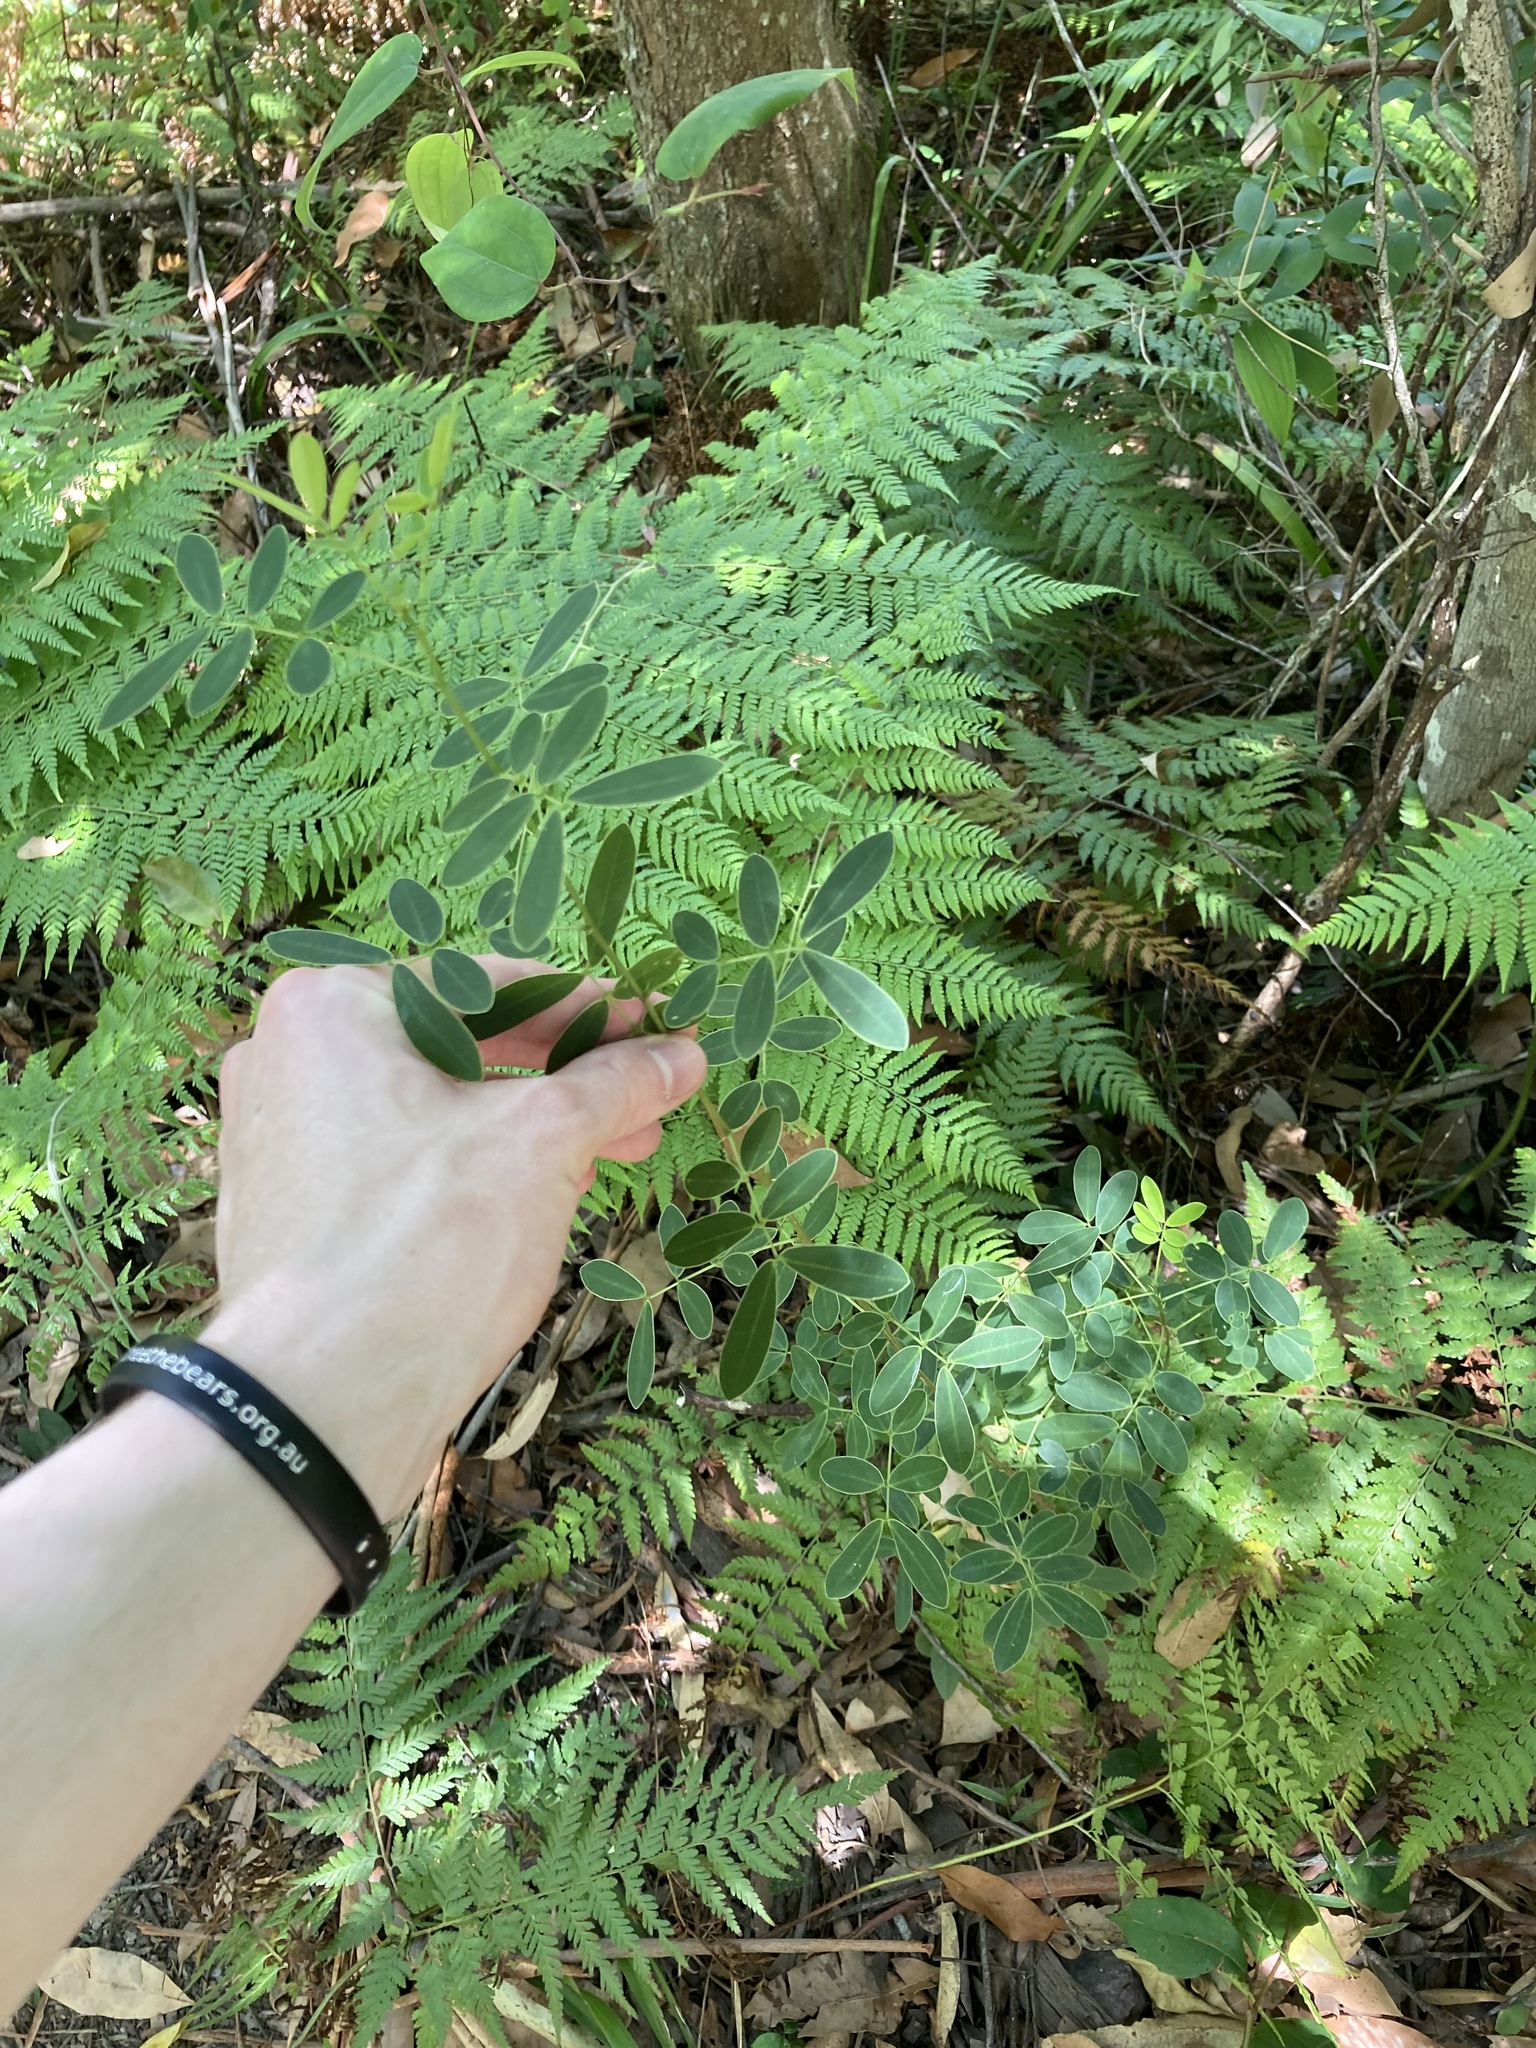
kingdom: Plantae
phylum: Tracheophyta
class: Magnoliopsida
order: Fabales
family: Fabaceae
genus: Senna
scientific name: Senna pendula
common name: Easter cassia
